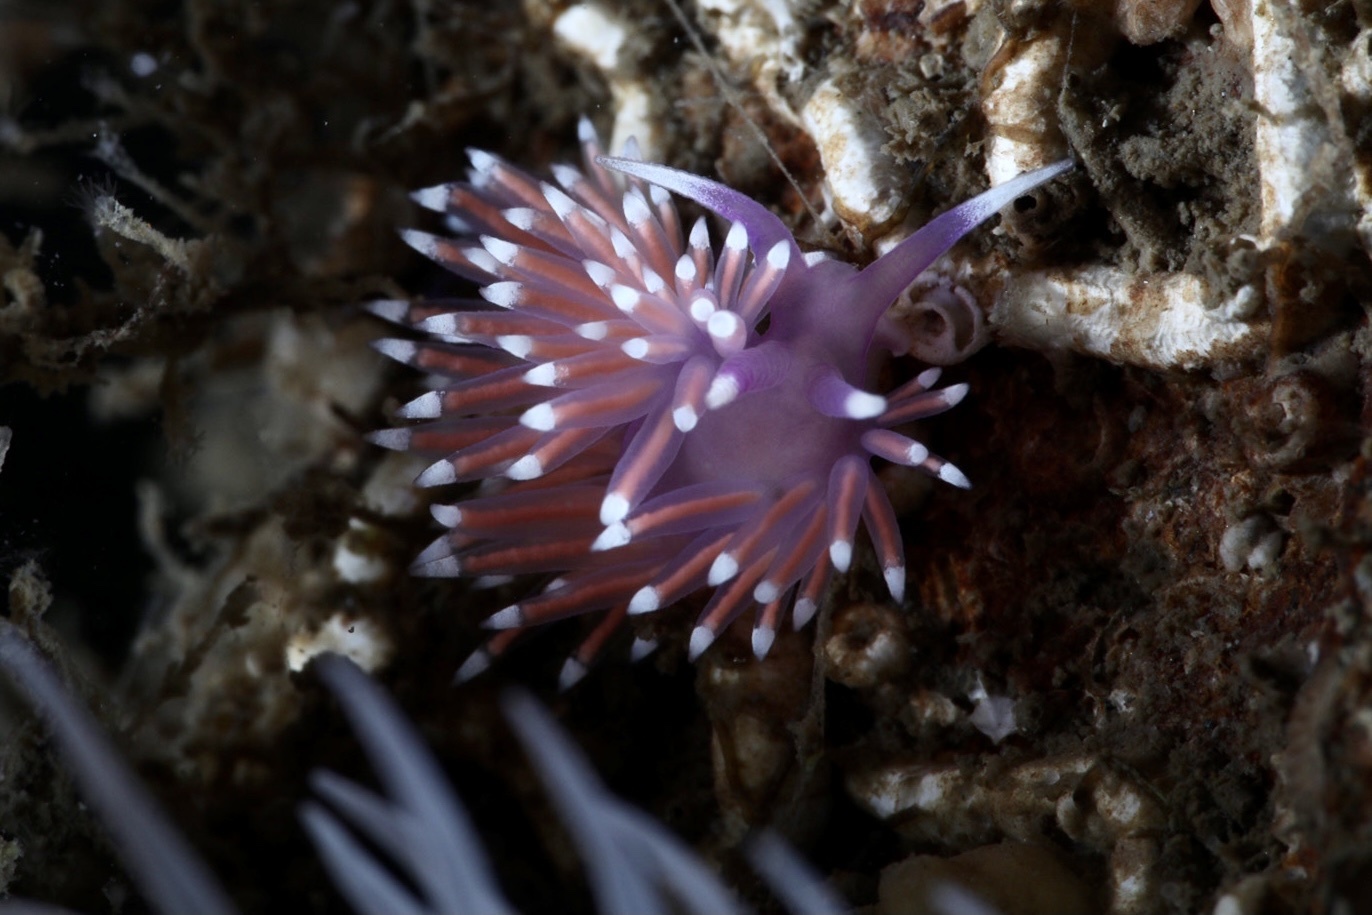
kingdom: Animalia
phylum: Mollusca
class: Gastropoda
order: Nudibranchia
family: Flabellinidae
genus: Edmundsella
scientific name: Edmundsella pedata
